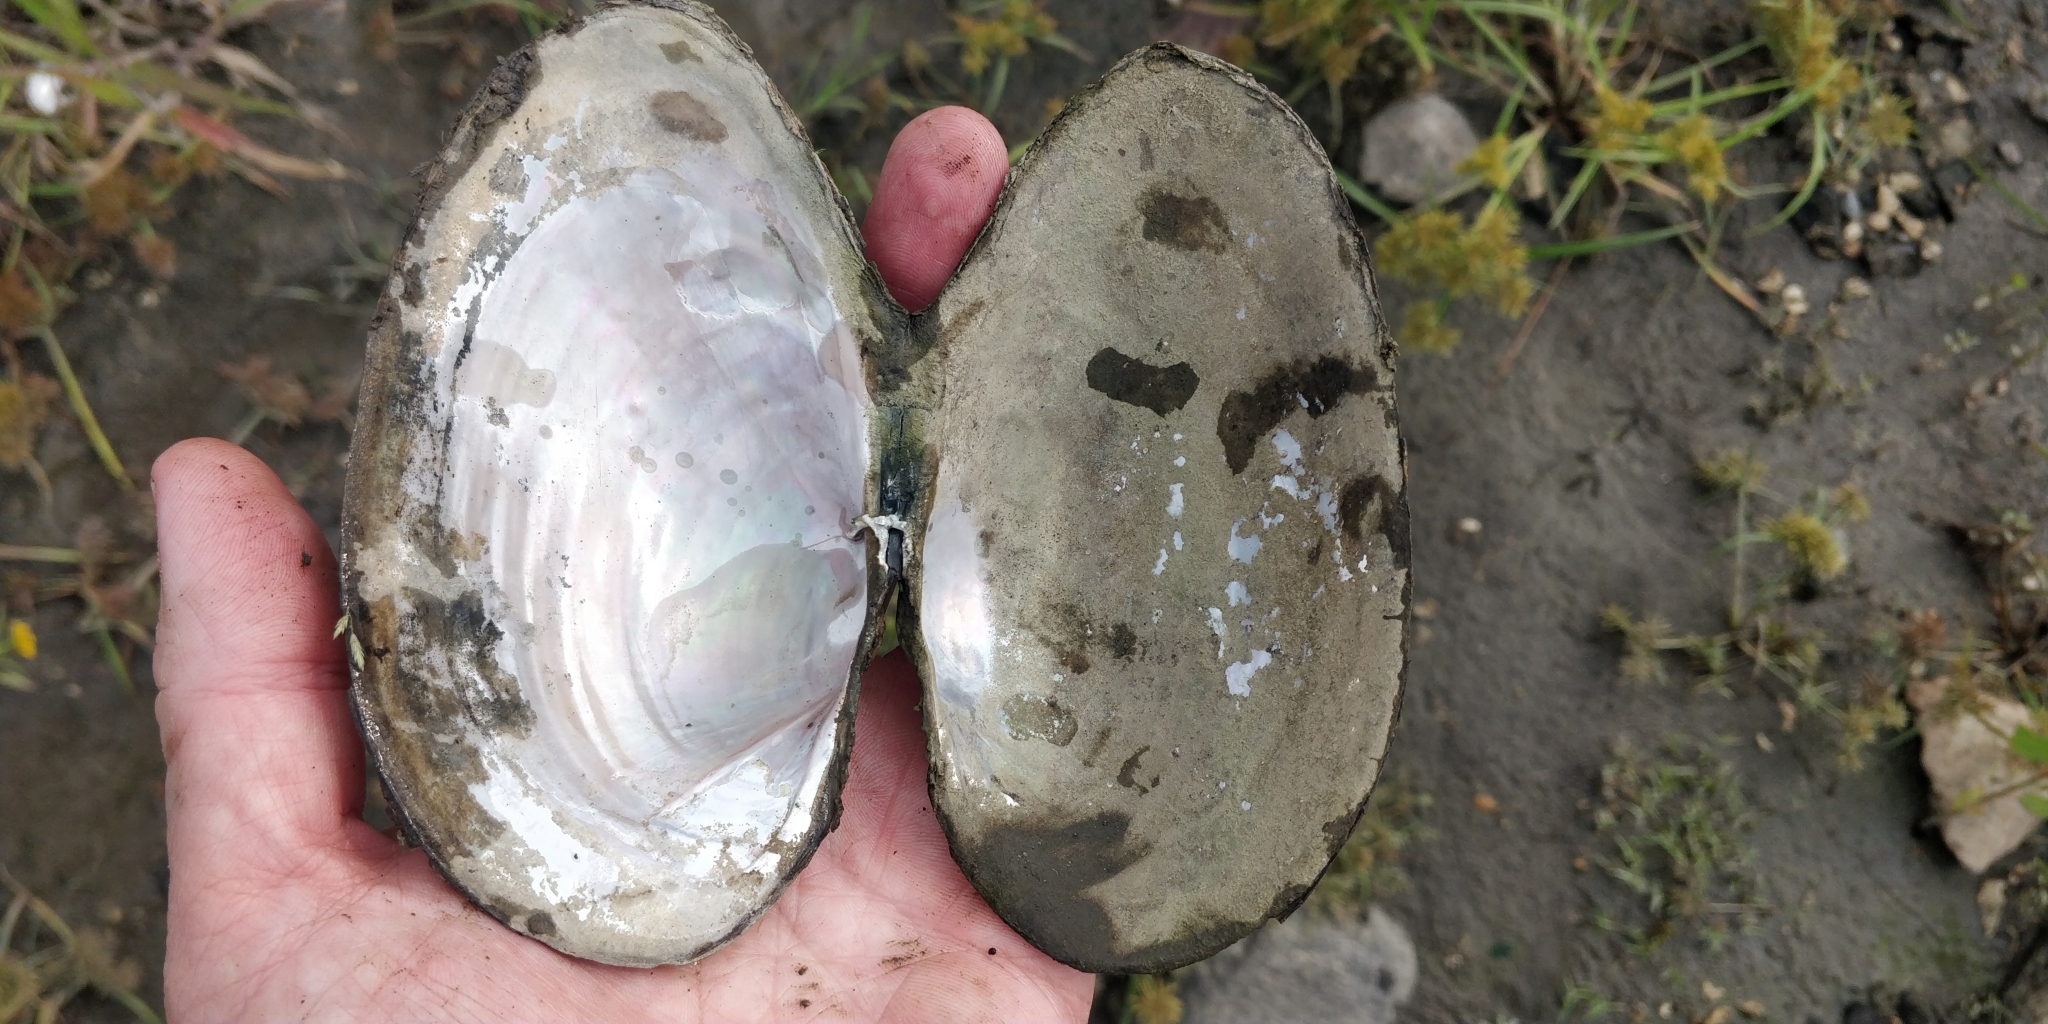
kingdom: Animalia
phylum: Mollusca
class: Bivalvia
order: Unionida
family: Unionidae
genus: Pyganodon
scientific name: Pyganodon grandis
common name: Giant floater
